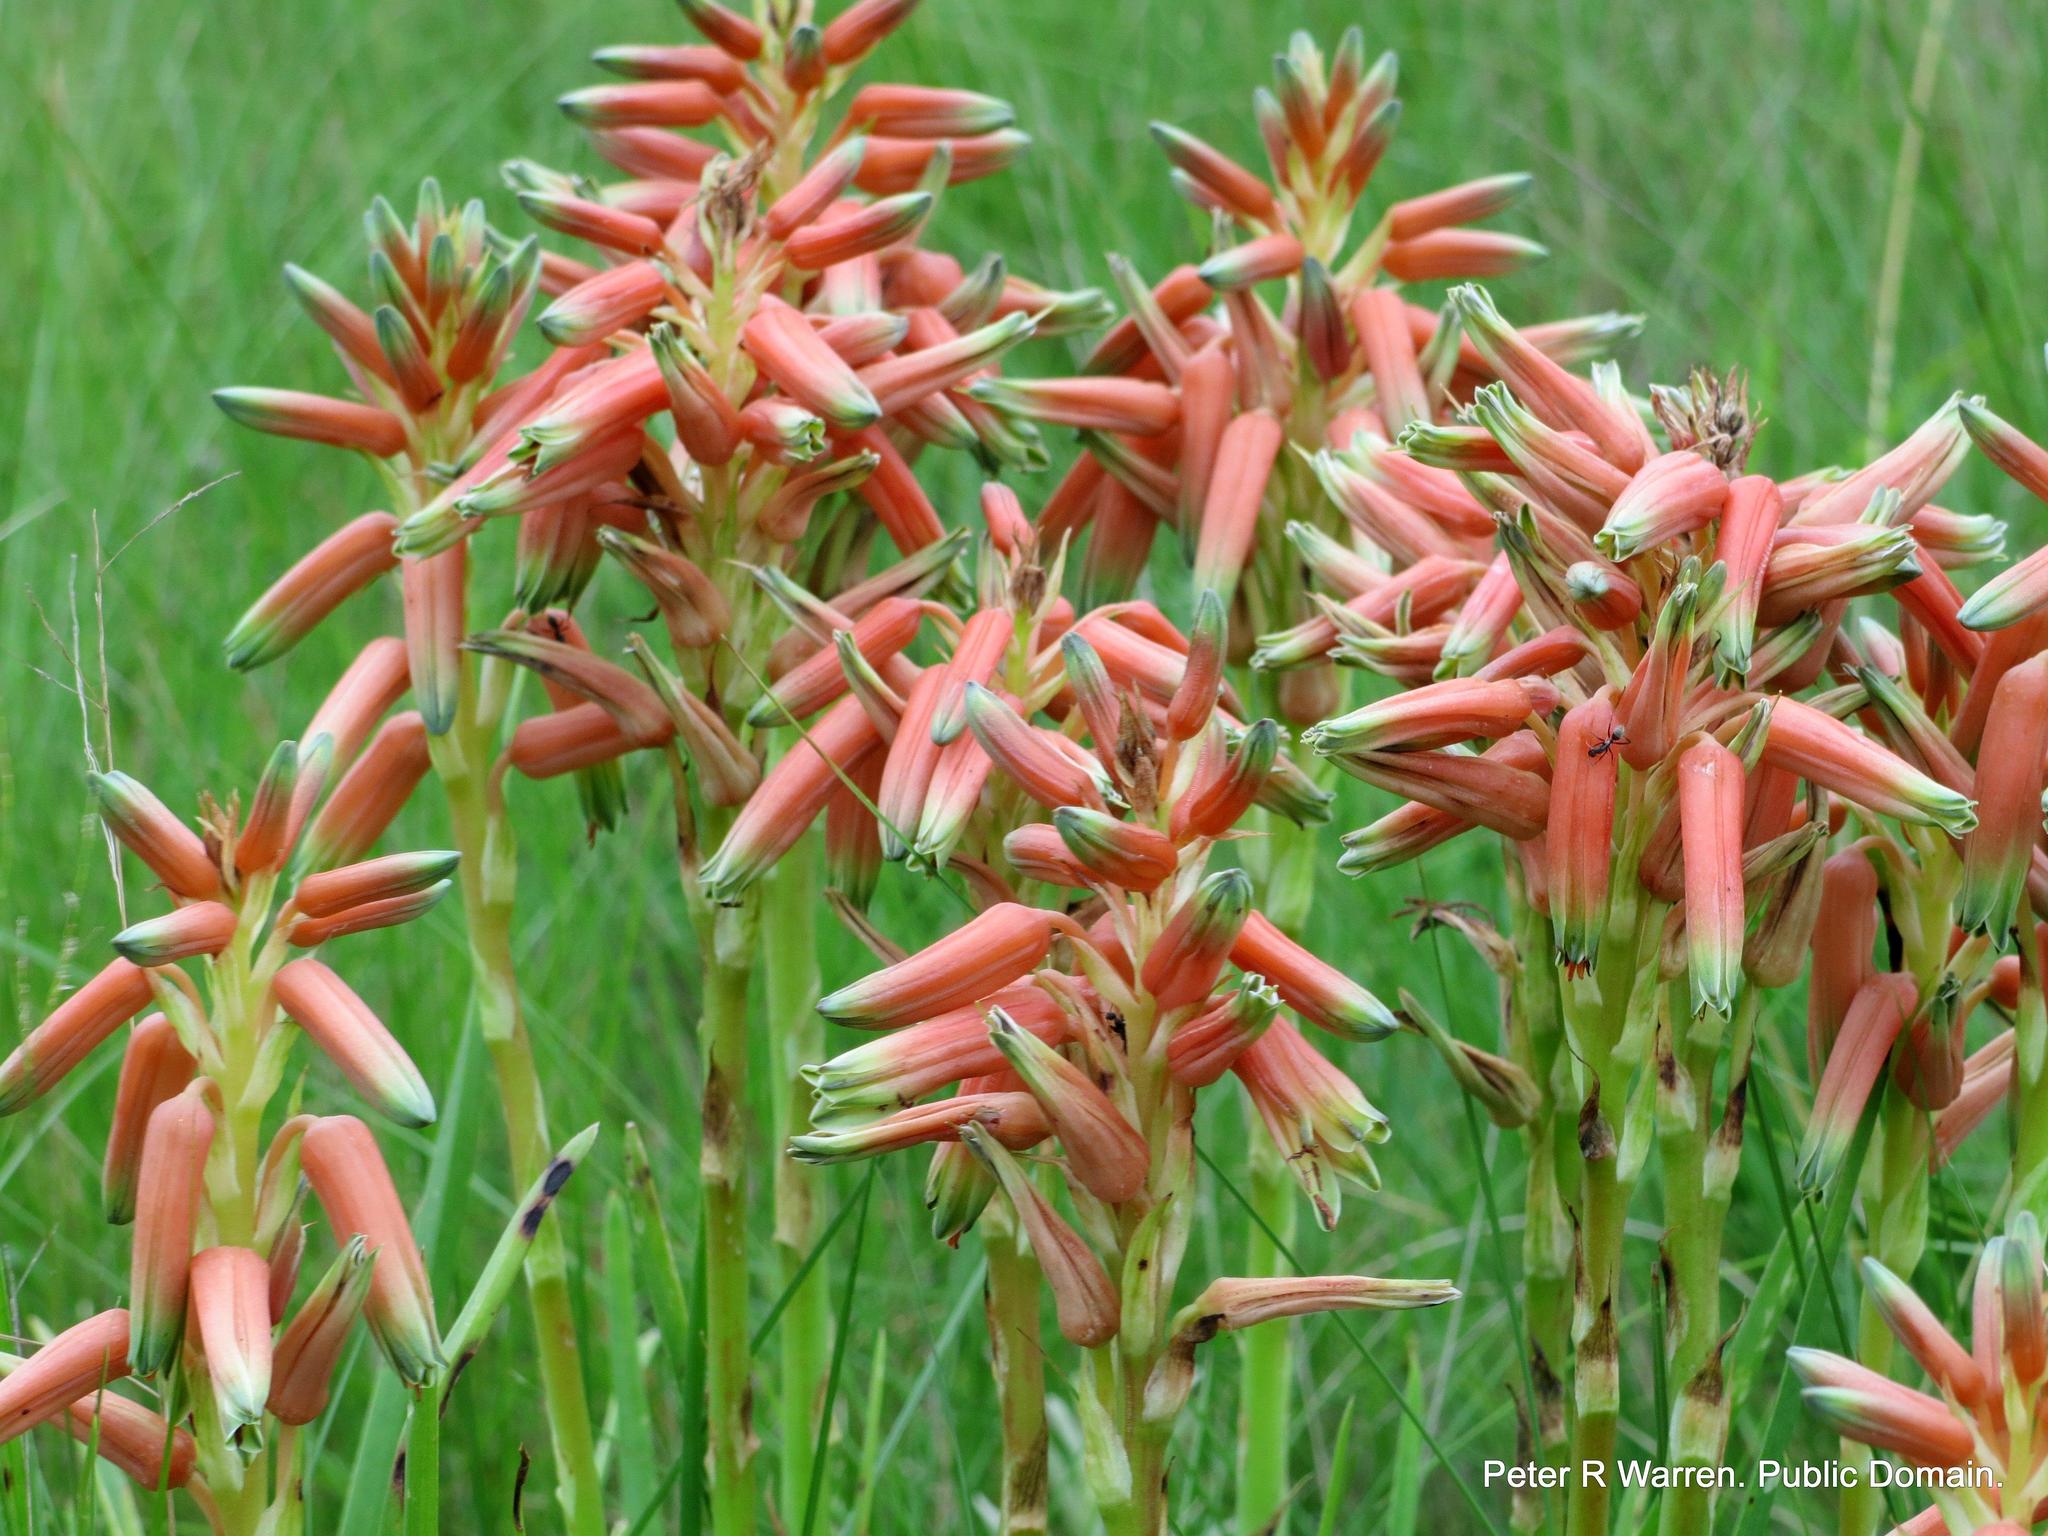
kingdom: Plantae
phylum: Tracheophyta
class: Liliopsida
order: Asparagales
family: Asphodelaceae
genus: Aloe
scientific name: Aloe cooperi
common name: Cooper's aloe
